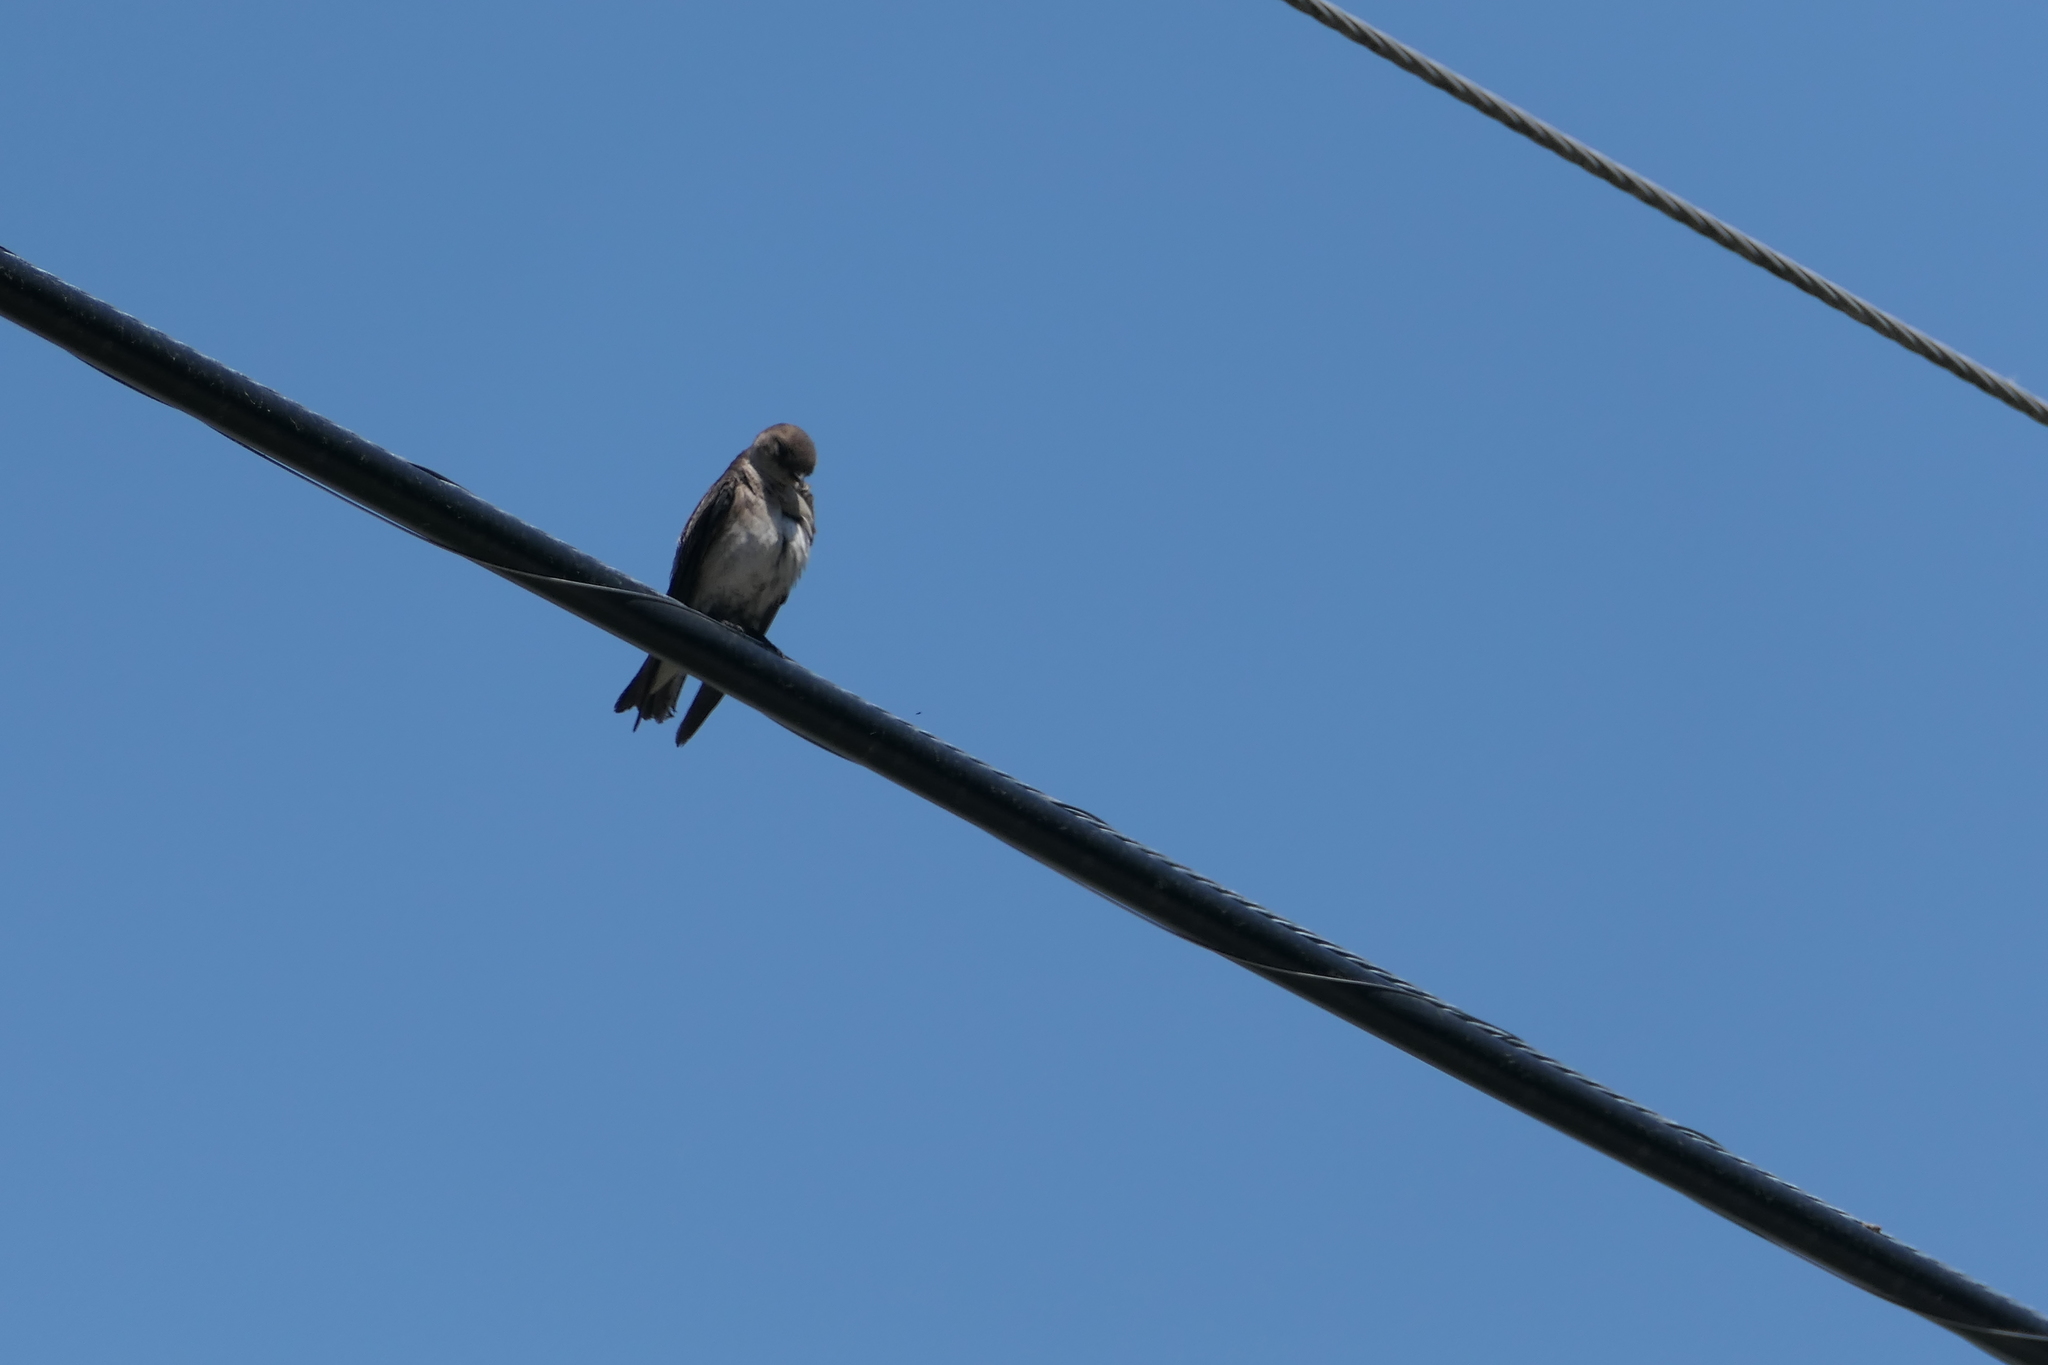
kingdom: Animalia
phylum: Chordata
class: Aves
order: Passeriformes
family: Hirundinidae
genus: Stelgidopteryx
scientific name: Stelgidopteryx serripennis
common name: Northern rough-winged swallow
